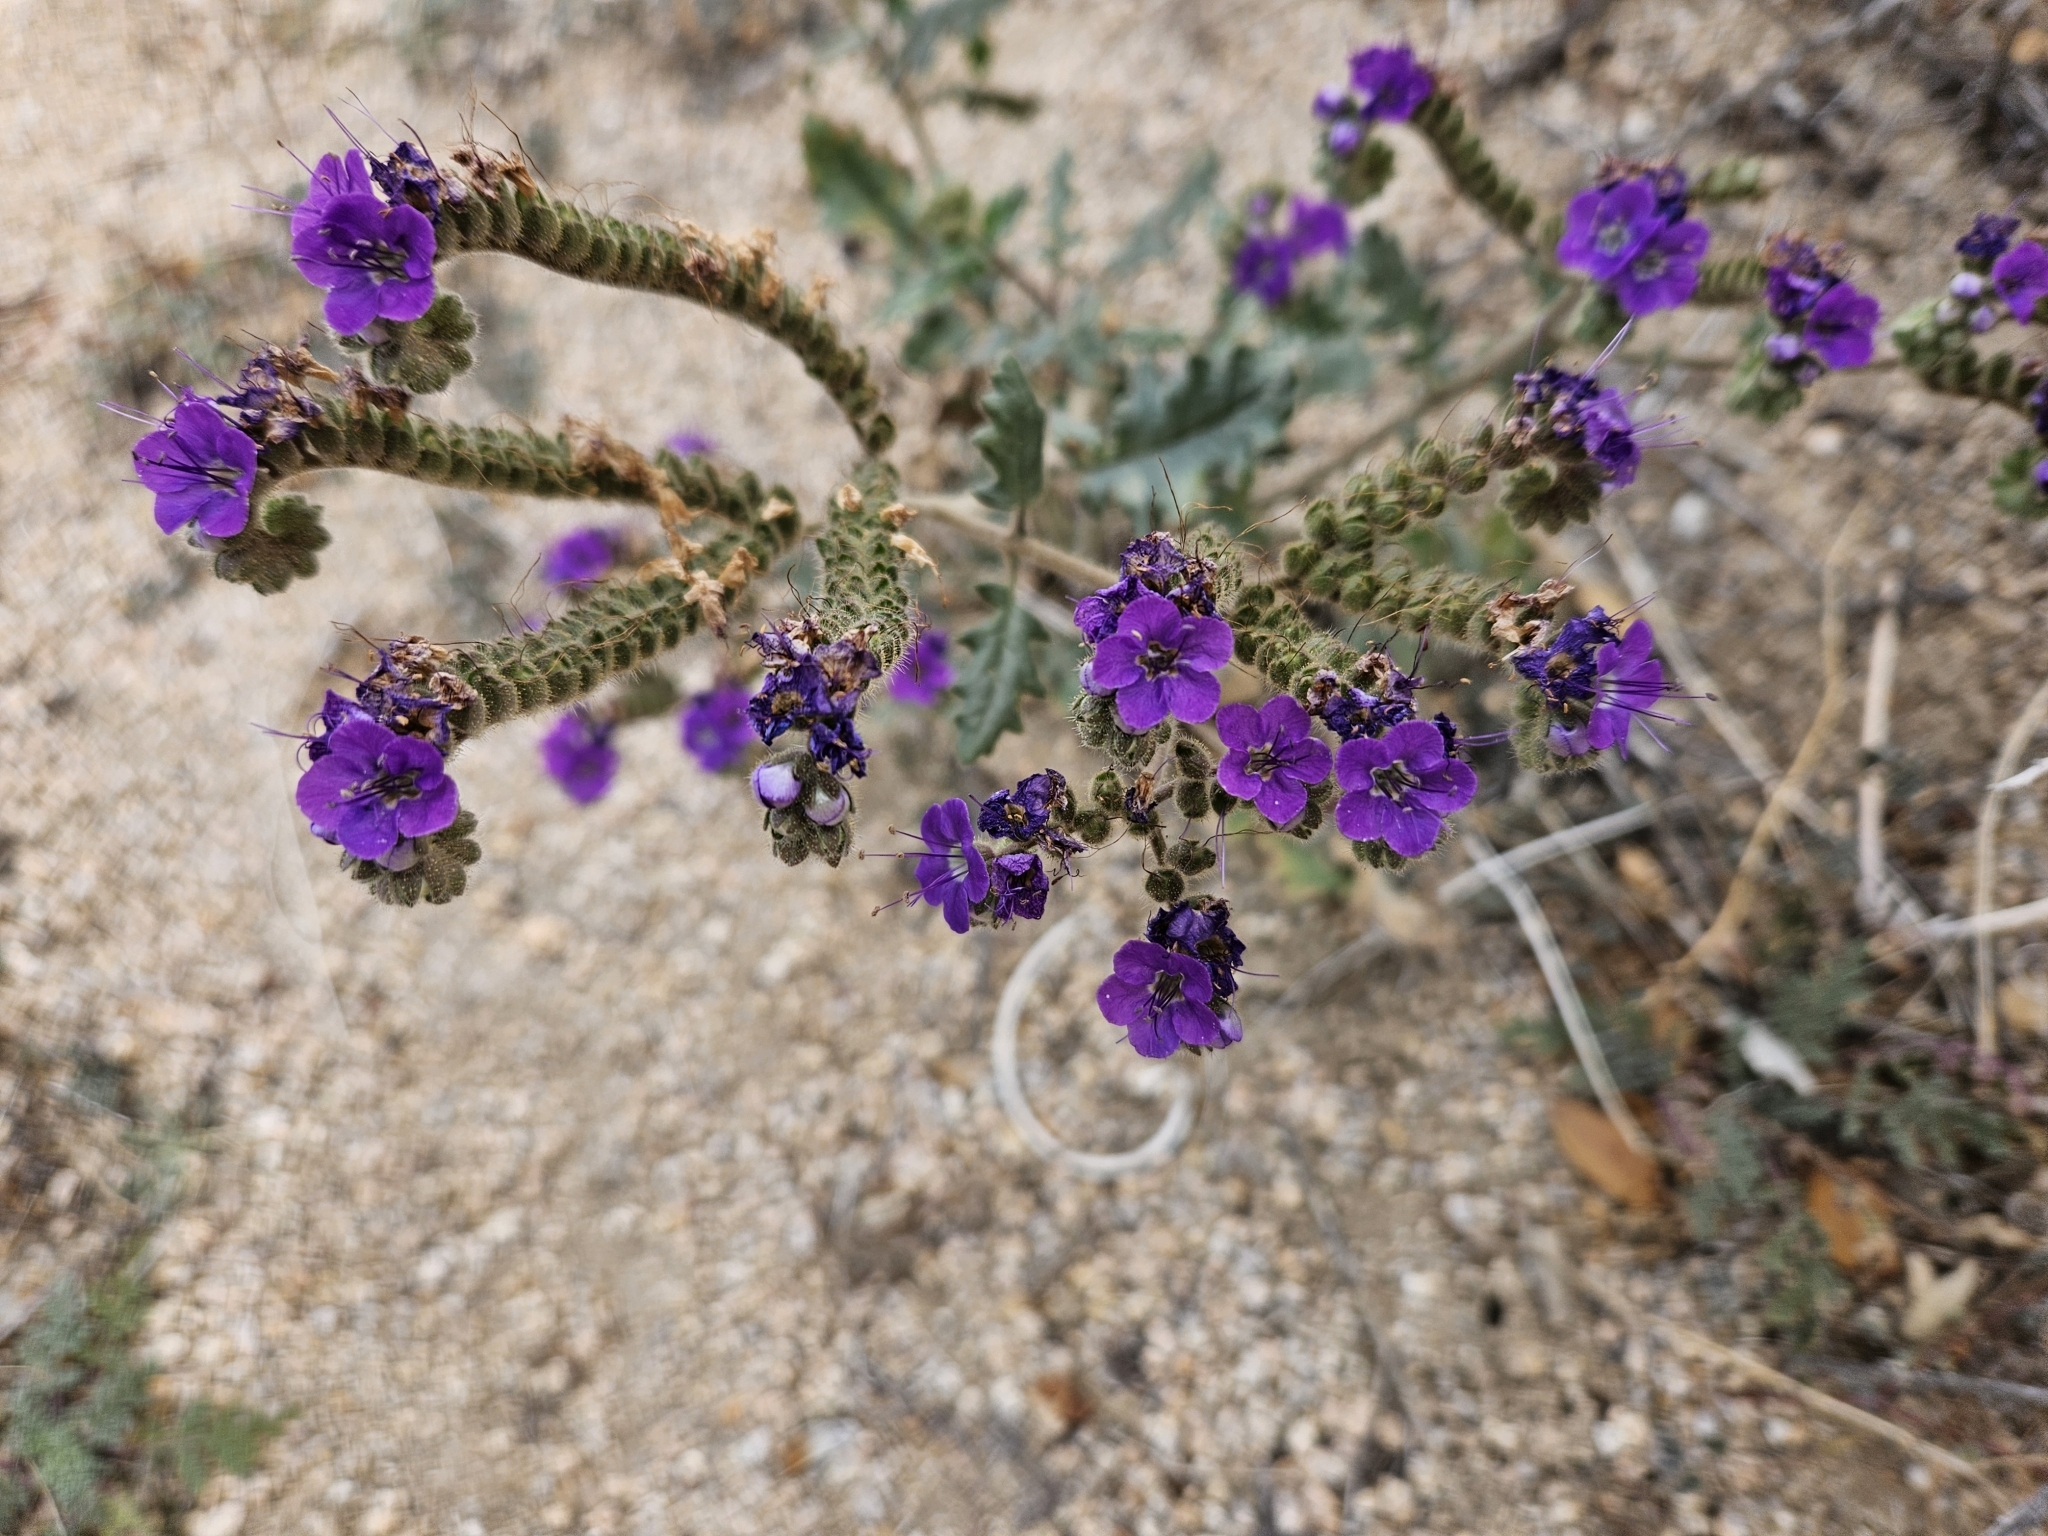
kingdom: Plantae
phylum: Tracheophyta
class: Magnoliopsida
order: Boraginales
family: Hydrophyllaceae
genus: Phacelia
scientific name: Phacelia crenulata
